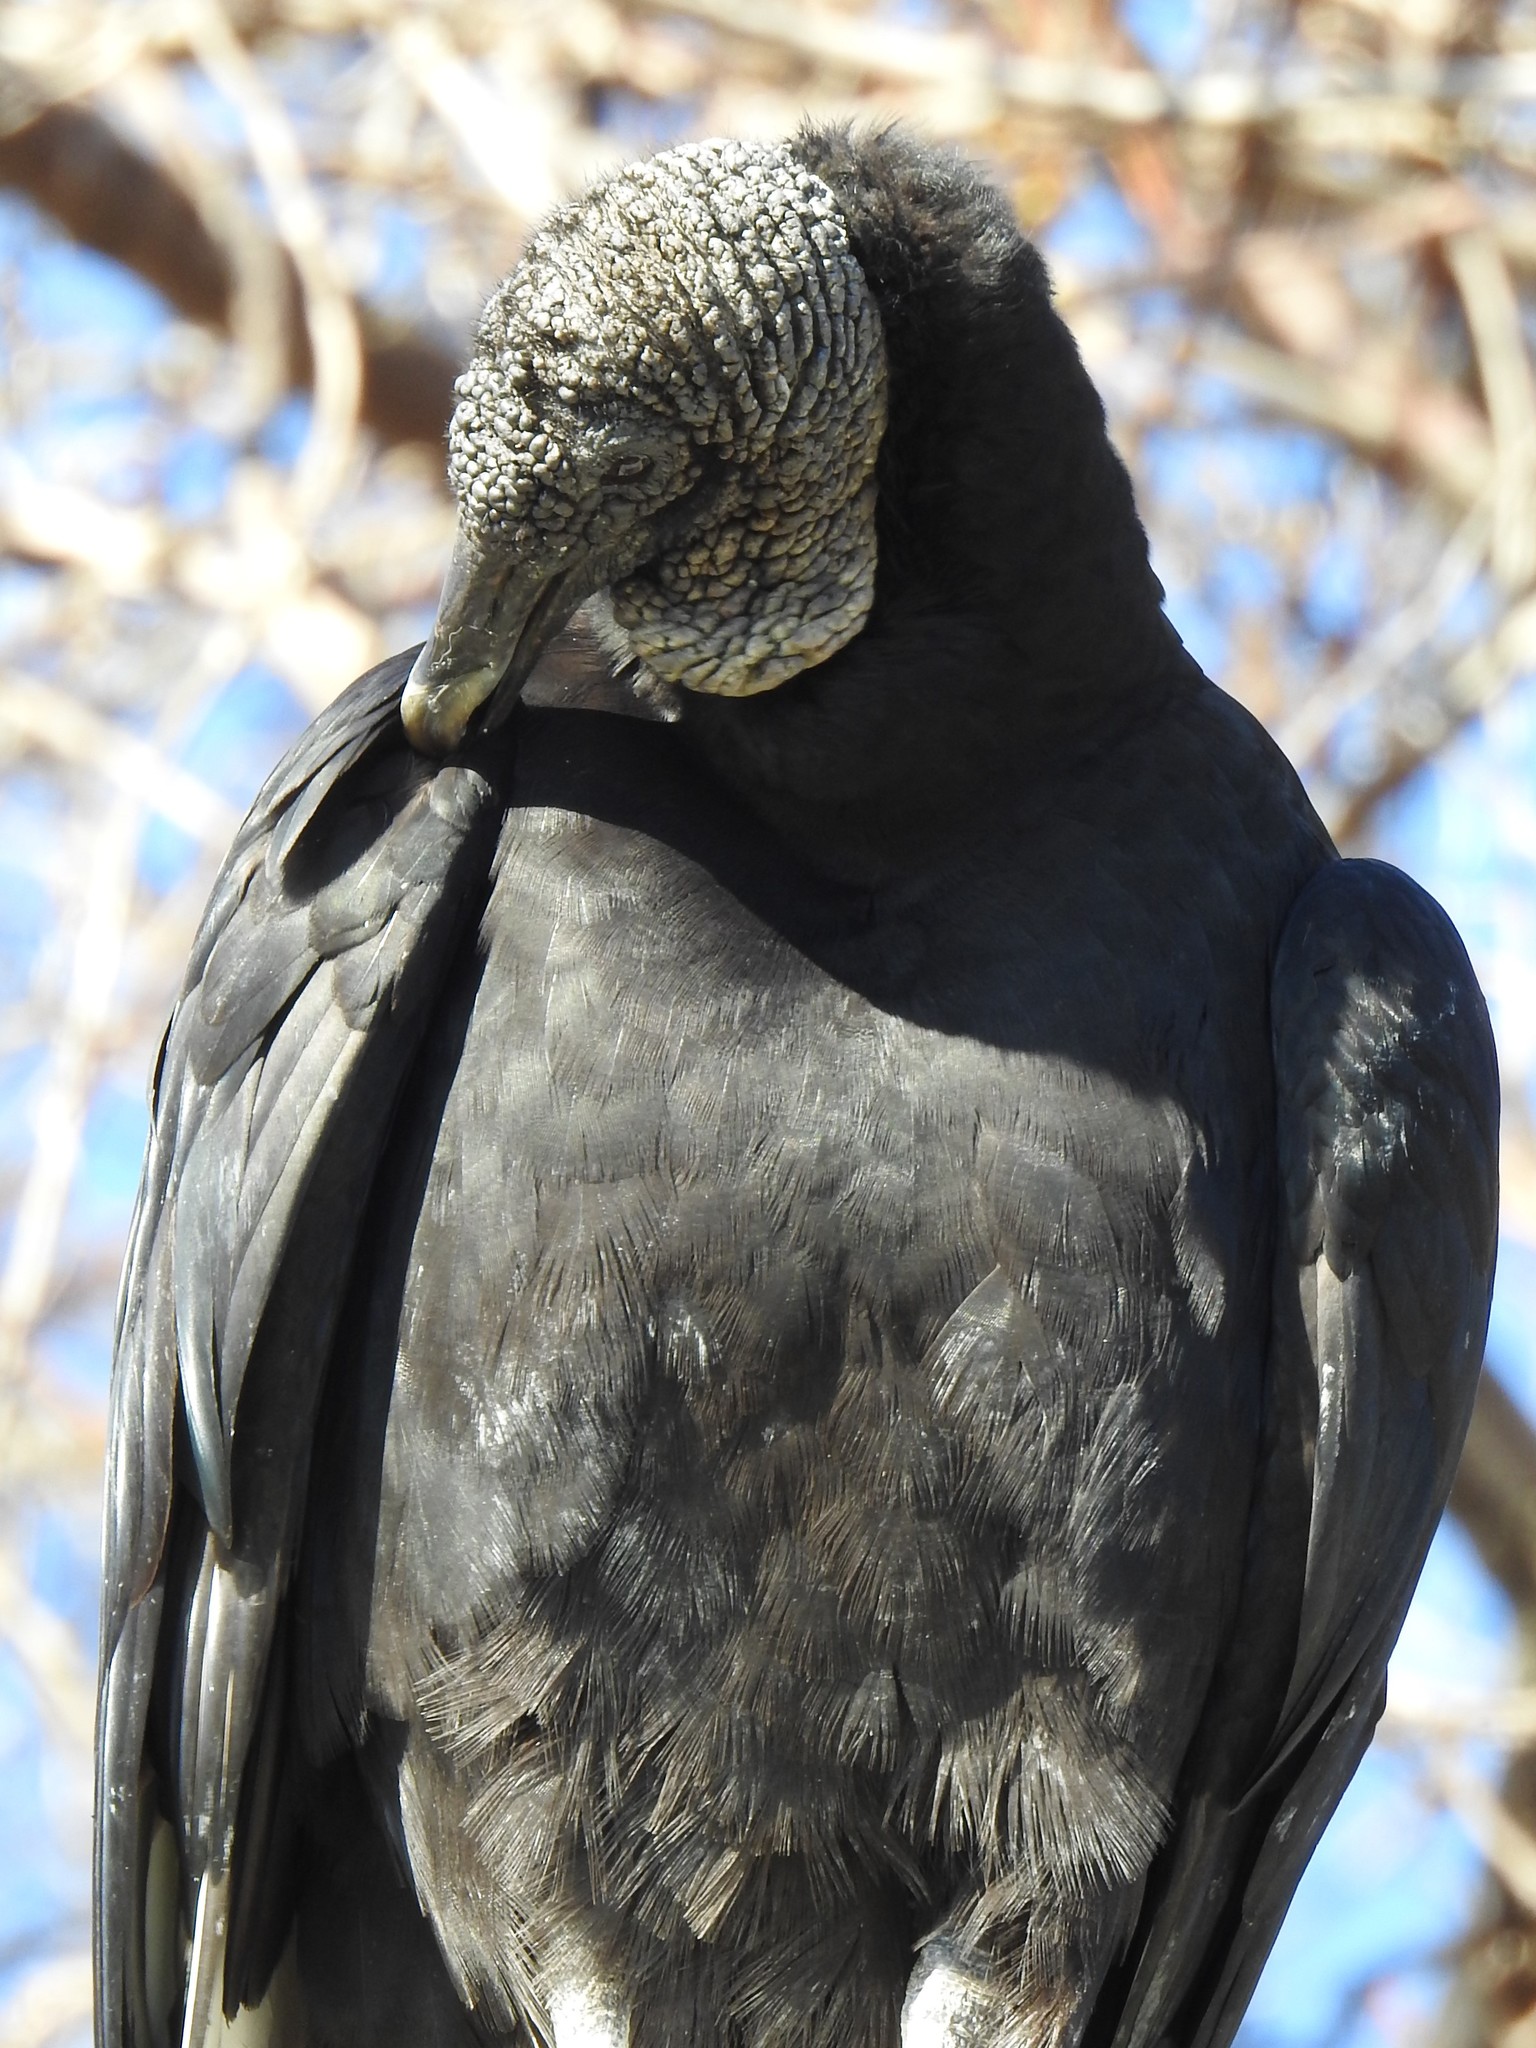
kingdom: Animalia
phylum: Chordata
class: Aves
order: Accipitriformes
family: Cathartidae
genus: Coragyps
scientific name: Coragyps atratus
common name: Black vulture
